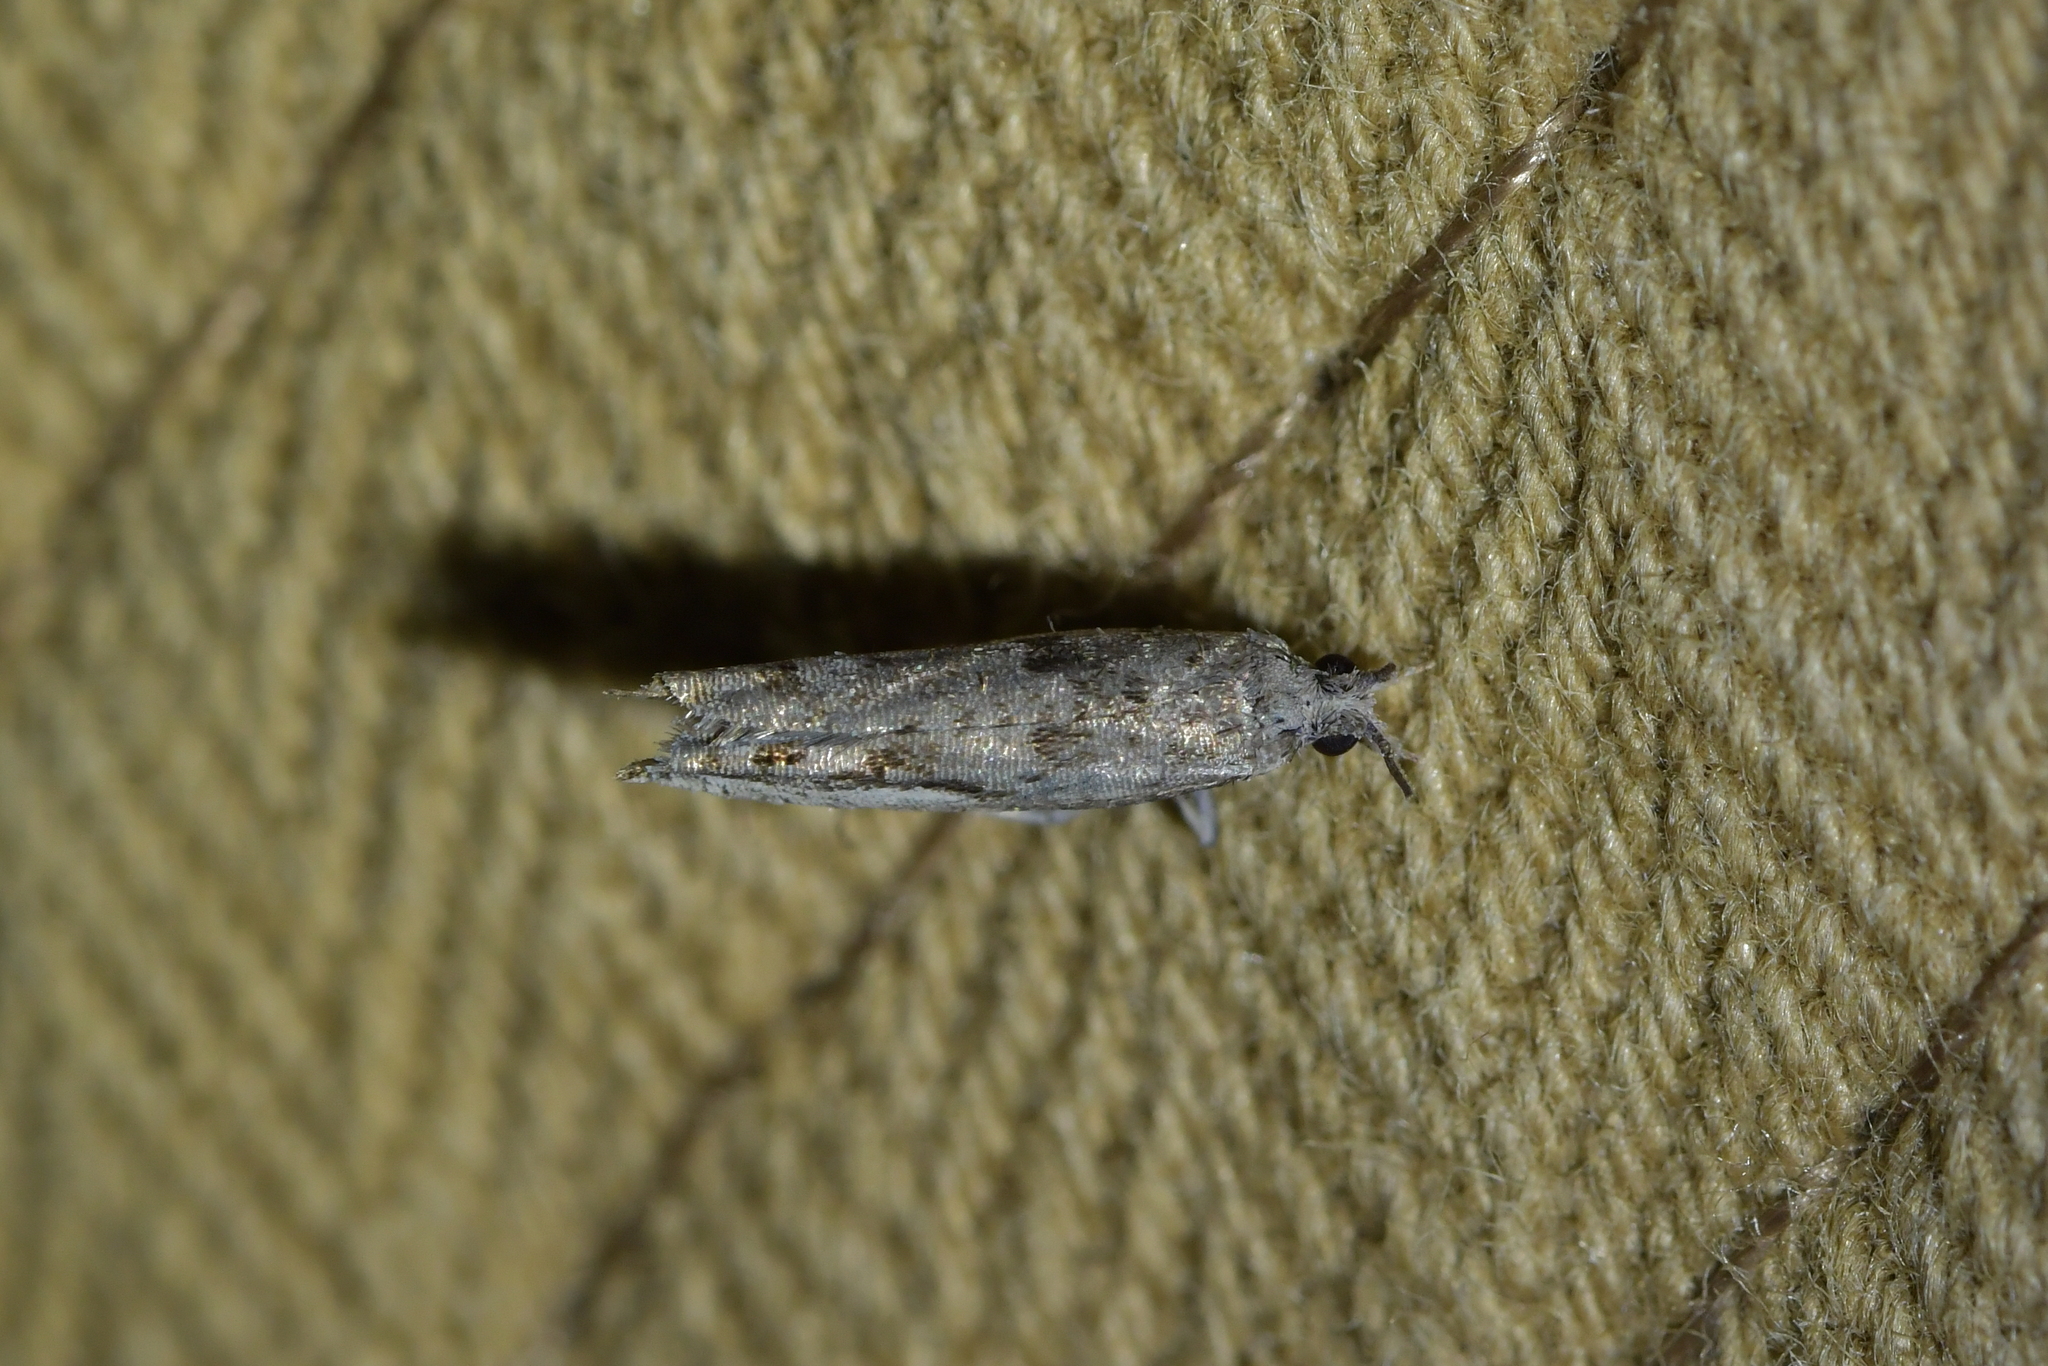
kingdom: Animalia
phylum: Arthropoda
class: Insecta
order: Lepidoptera
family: Tortricidae
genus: Holocola
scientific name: Holocola
